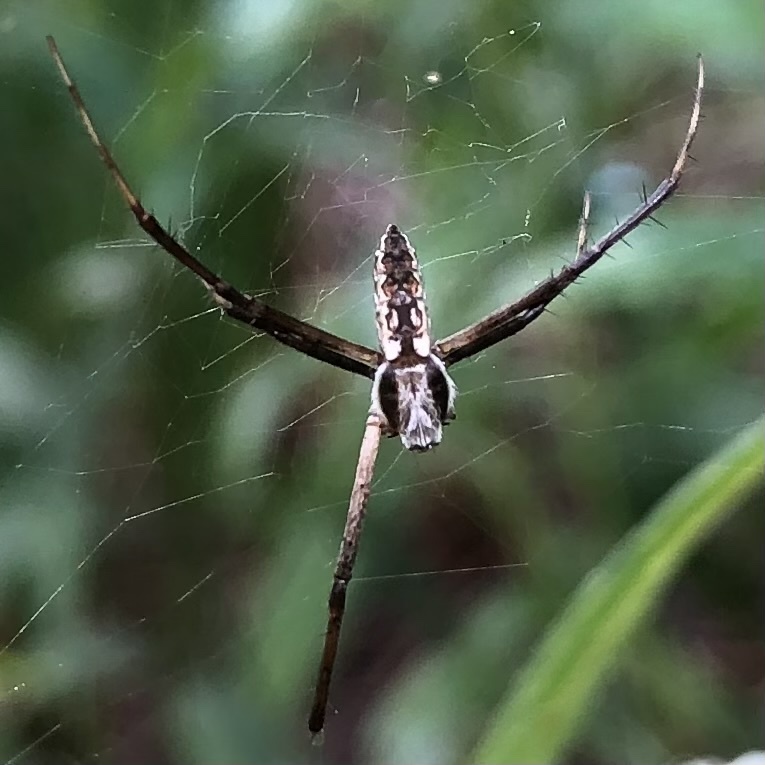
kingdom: Animalia
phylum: Arthropoda
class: Arachnida
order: Araneae
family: Araneidae
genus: Argiope
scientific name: Argiope aurantia
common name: Orb weavers
